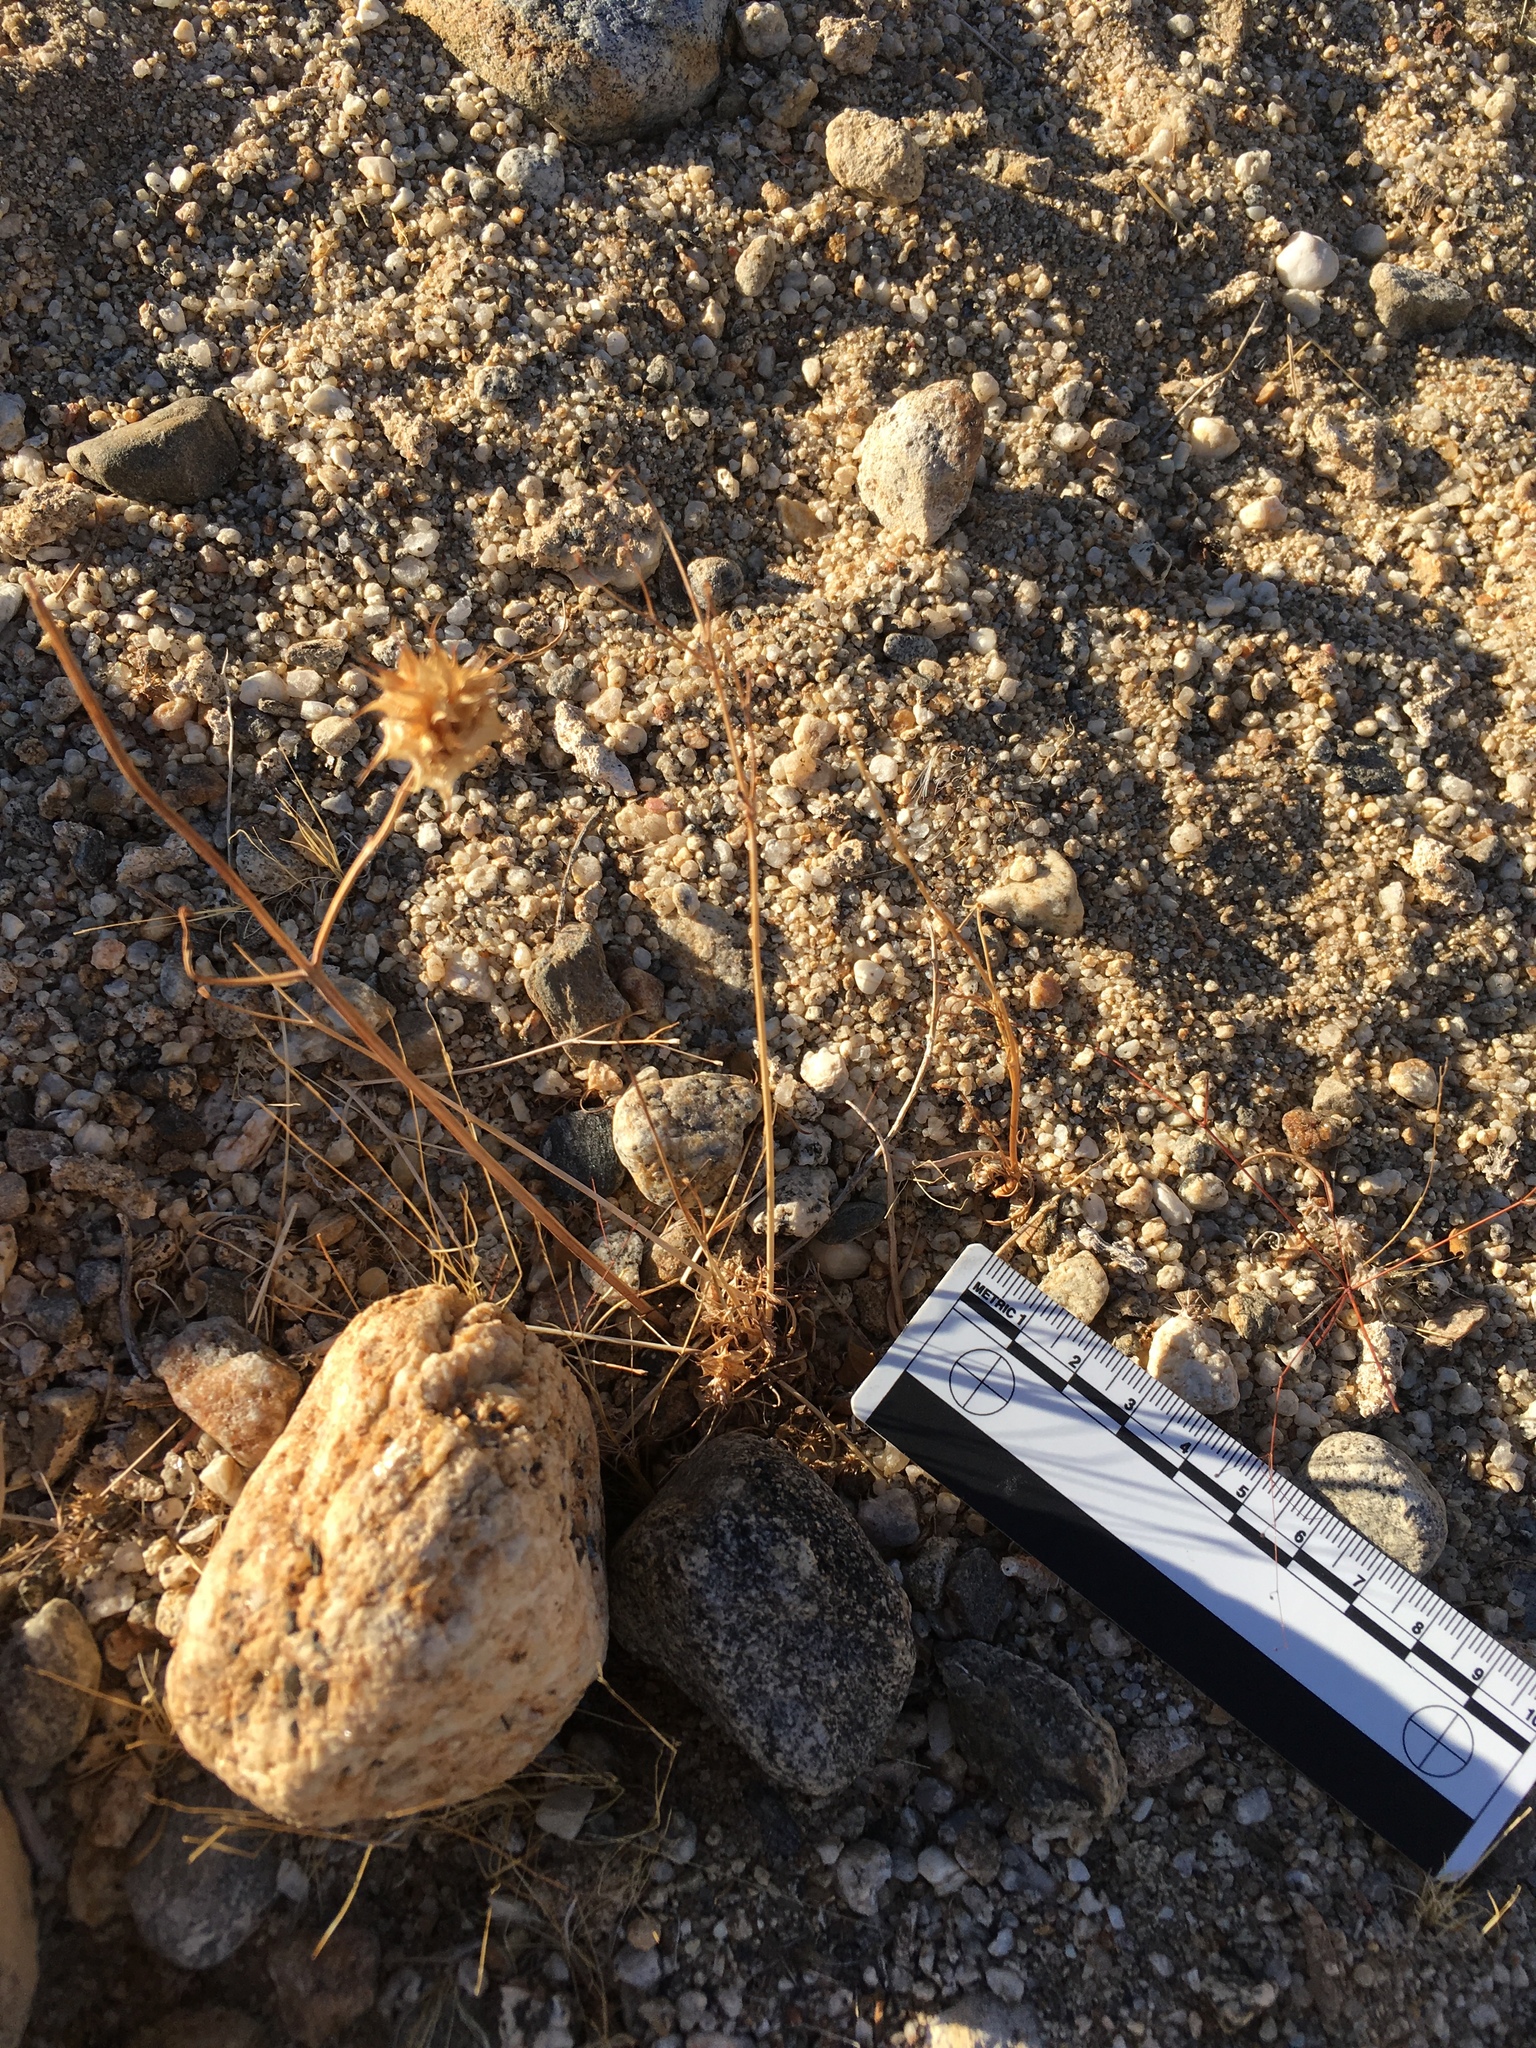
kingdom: Plantae
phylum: Tracheophyta
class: Magnoliopsida
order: Lamiales
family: Lamiaceae
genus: Salvia
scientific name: Salvia columbariae
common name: Chia
